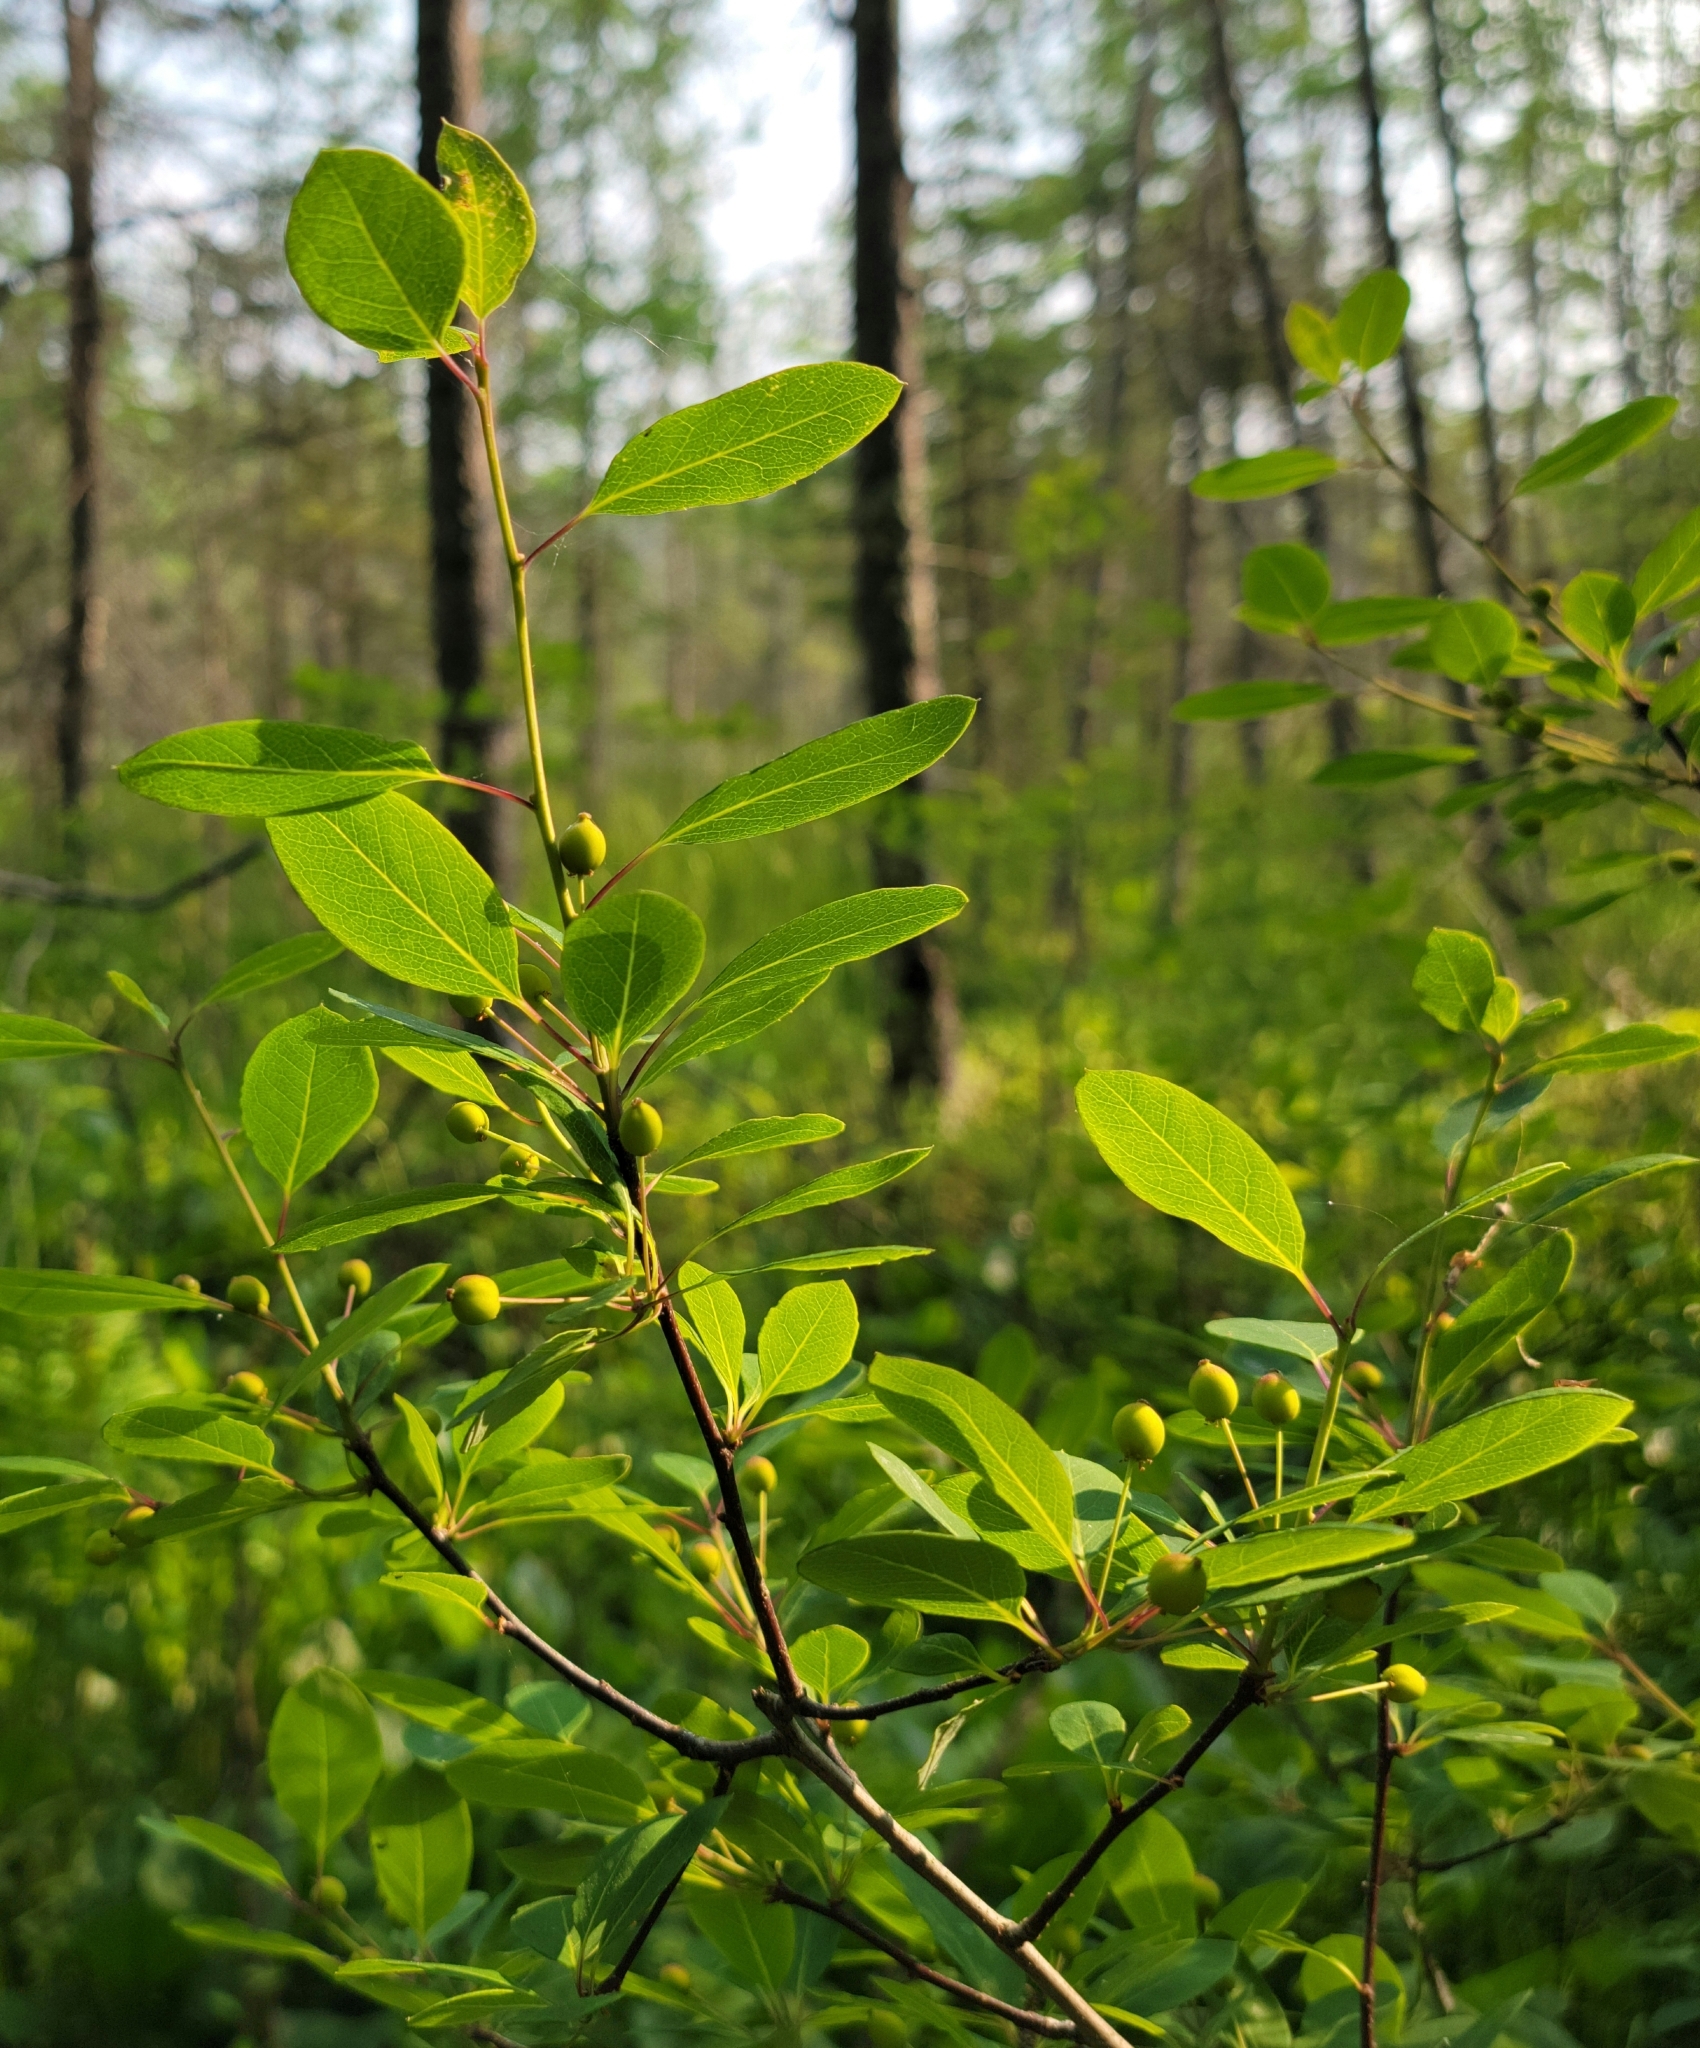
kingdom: Plantae
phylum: Tracheophyta
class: Magnoliopsida
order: Aquifoliales
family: Aquifoliaceae
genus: Ilex
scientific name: Ilex mucronata
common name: Catberry
